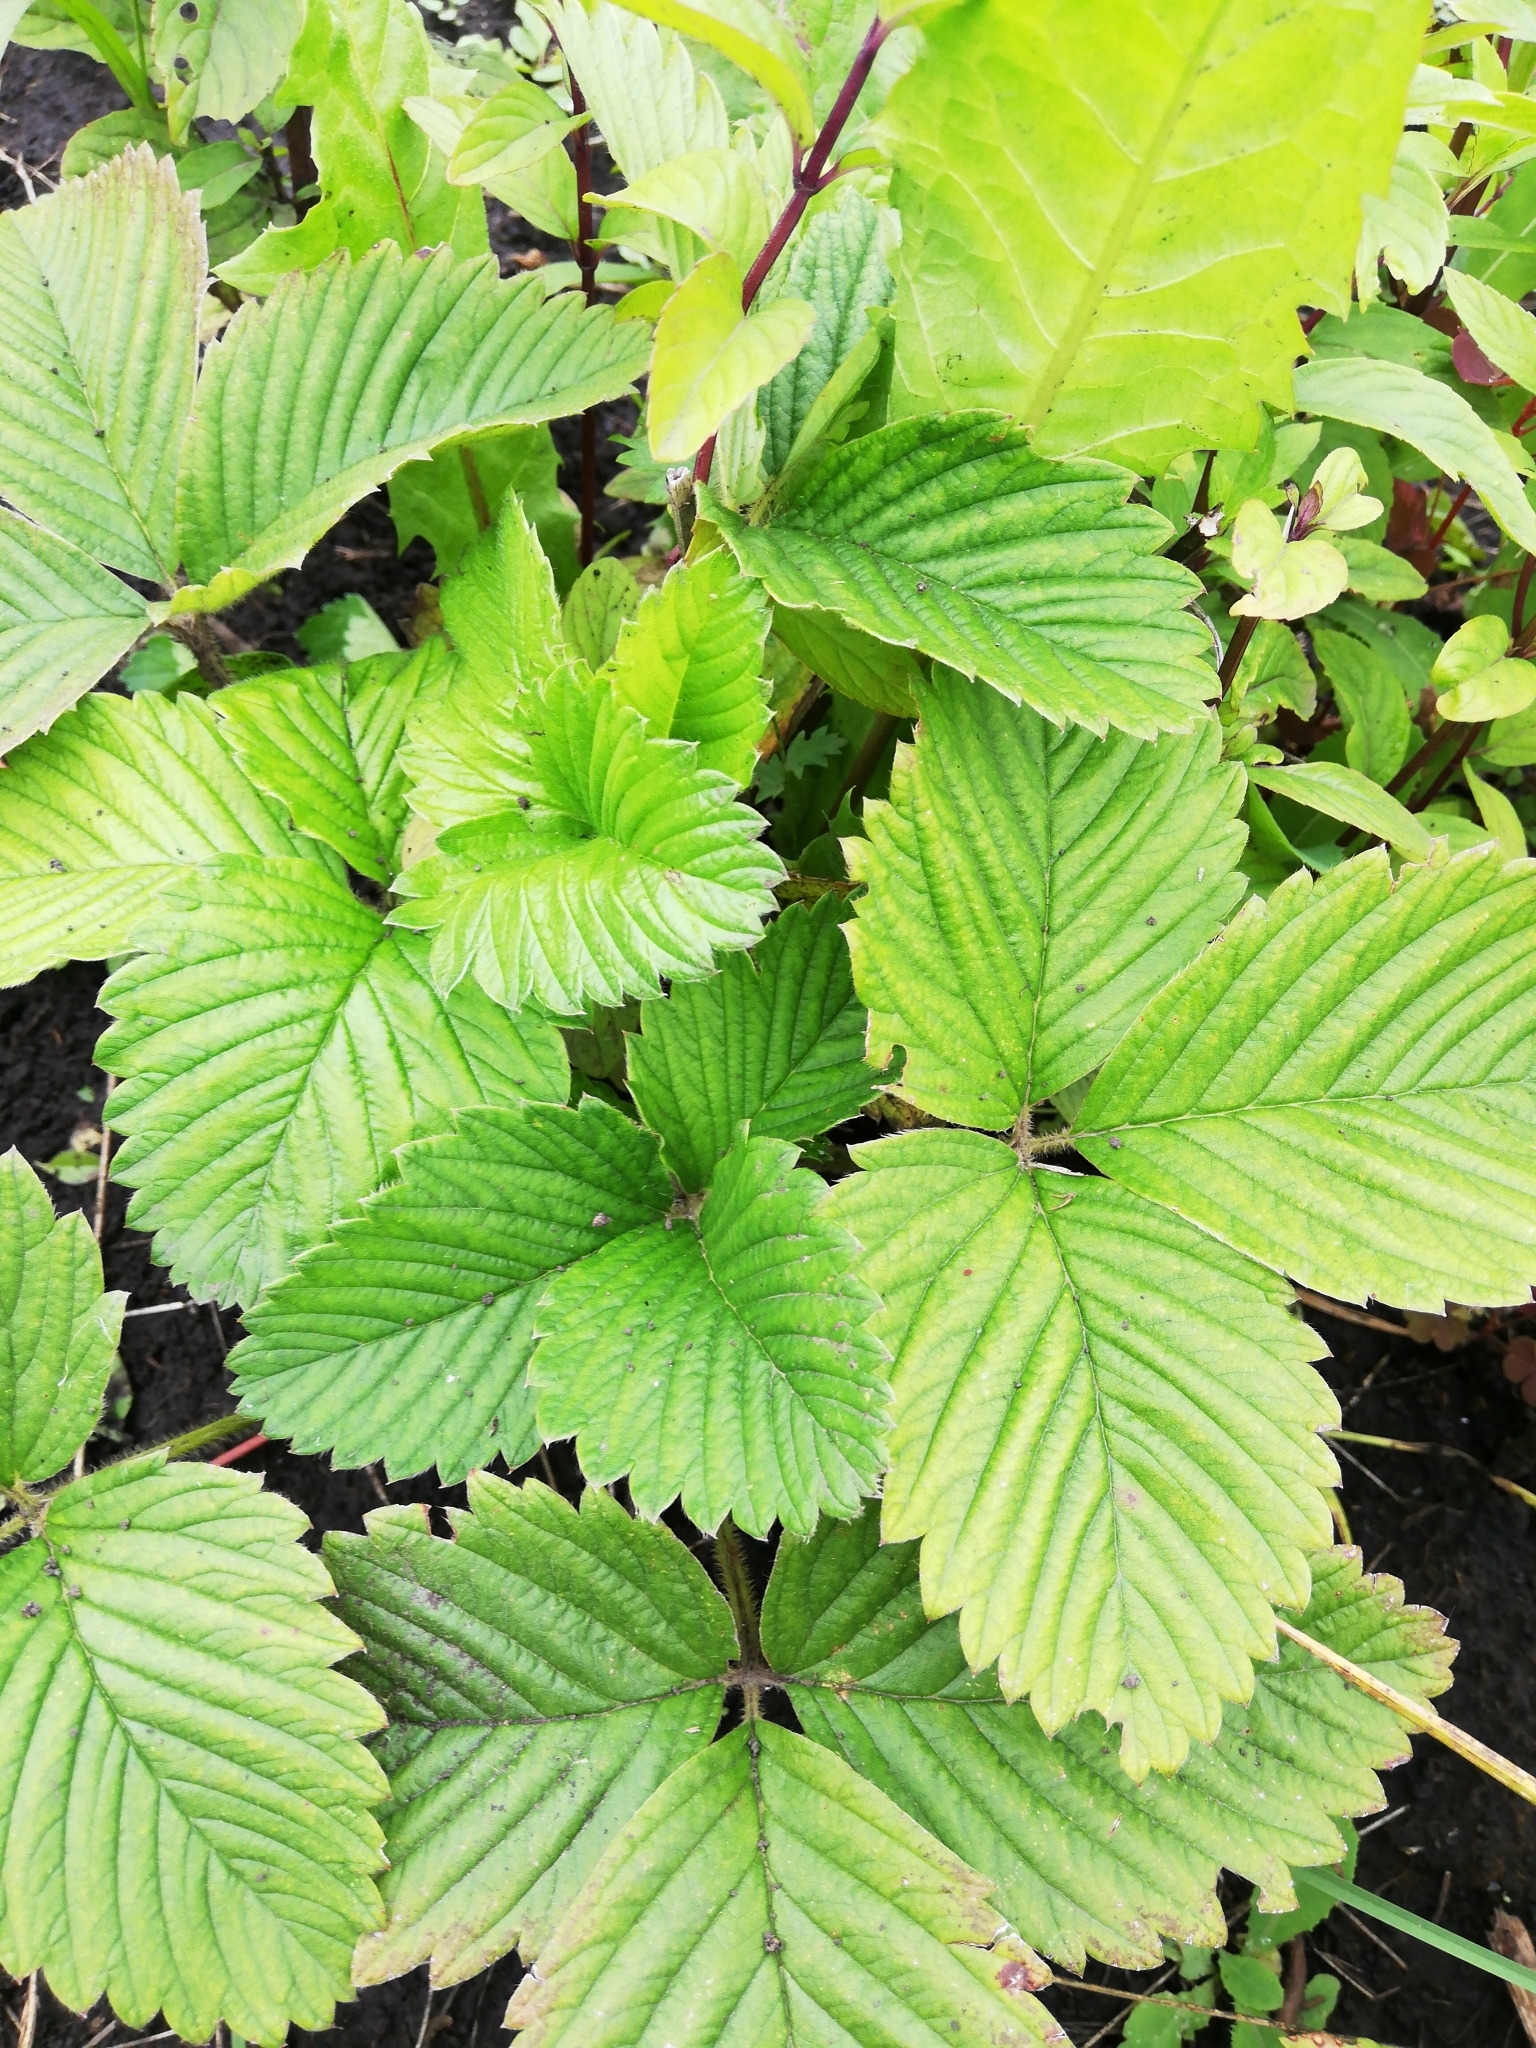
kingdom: Plantae
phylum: Tracheophyta
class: Magnoliopsida
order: Rosales
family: Rosaceae
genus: Fragaria
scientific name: Fragaria viridis
